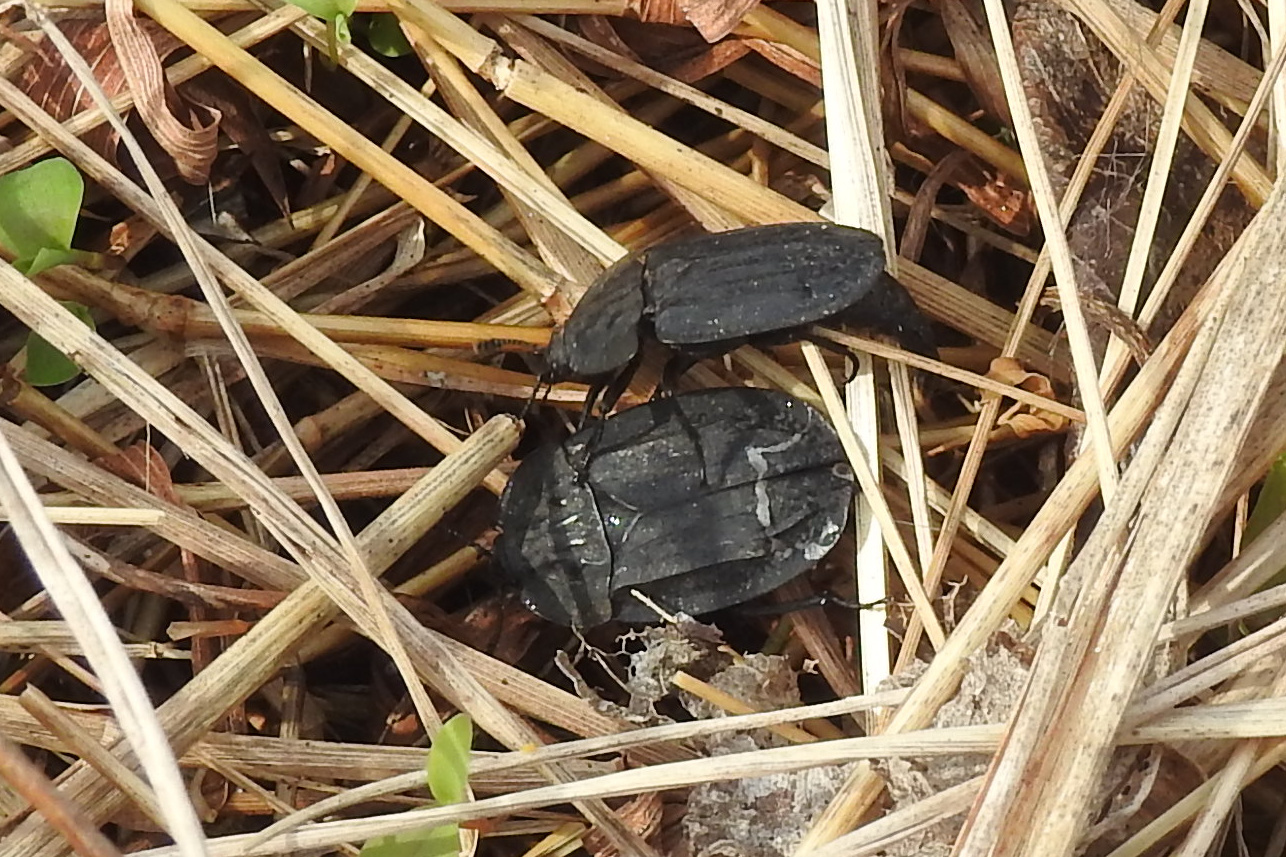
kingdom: Animalia
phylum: Arthropoda
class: Insecta
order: Coleoptera
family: Staphylinidae
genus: Oiceoptoma
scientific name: Oiceoptoma inaequale
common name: Ridged carrion beetle
